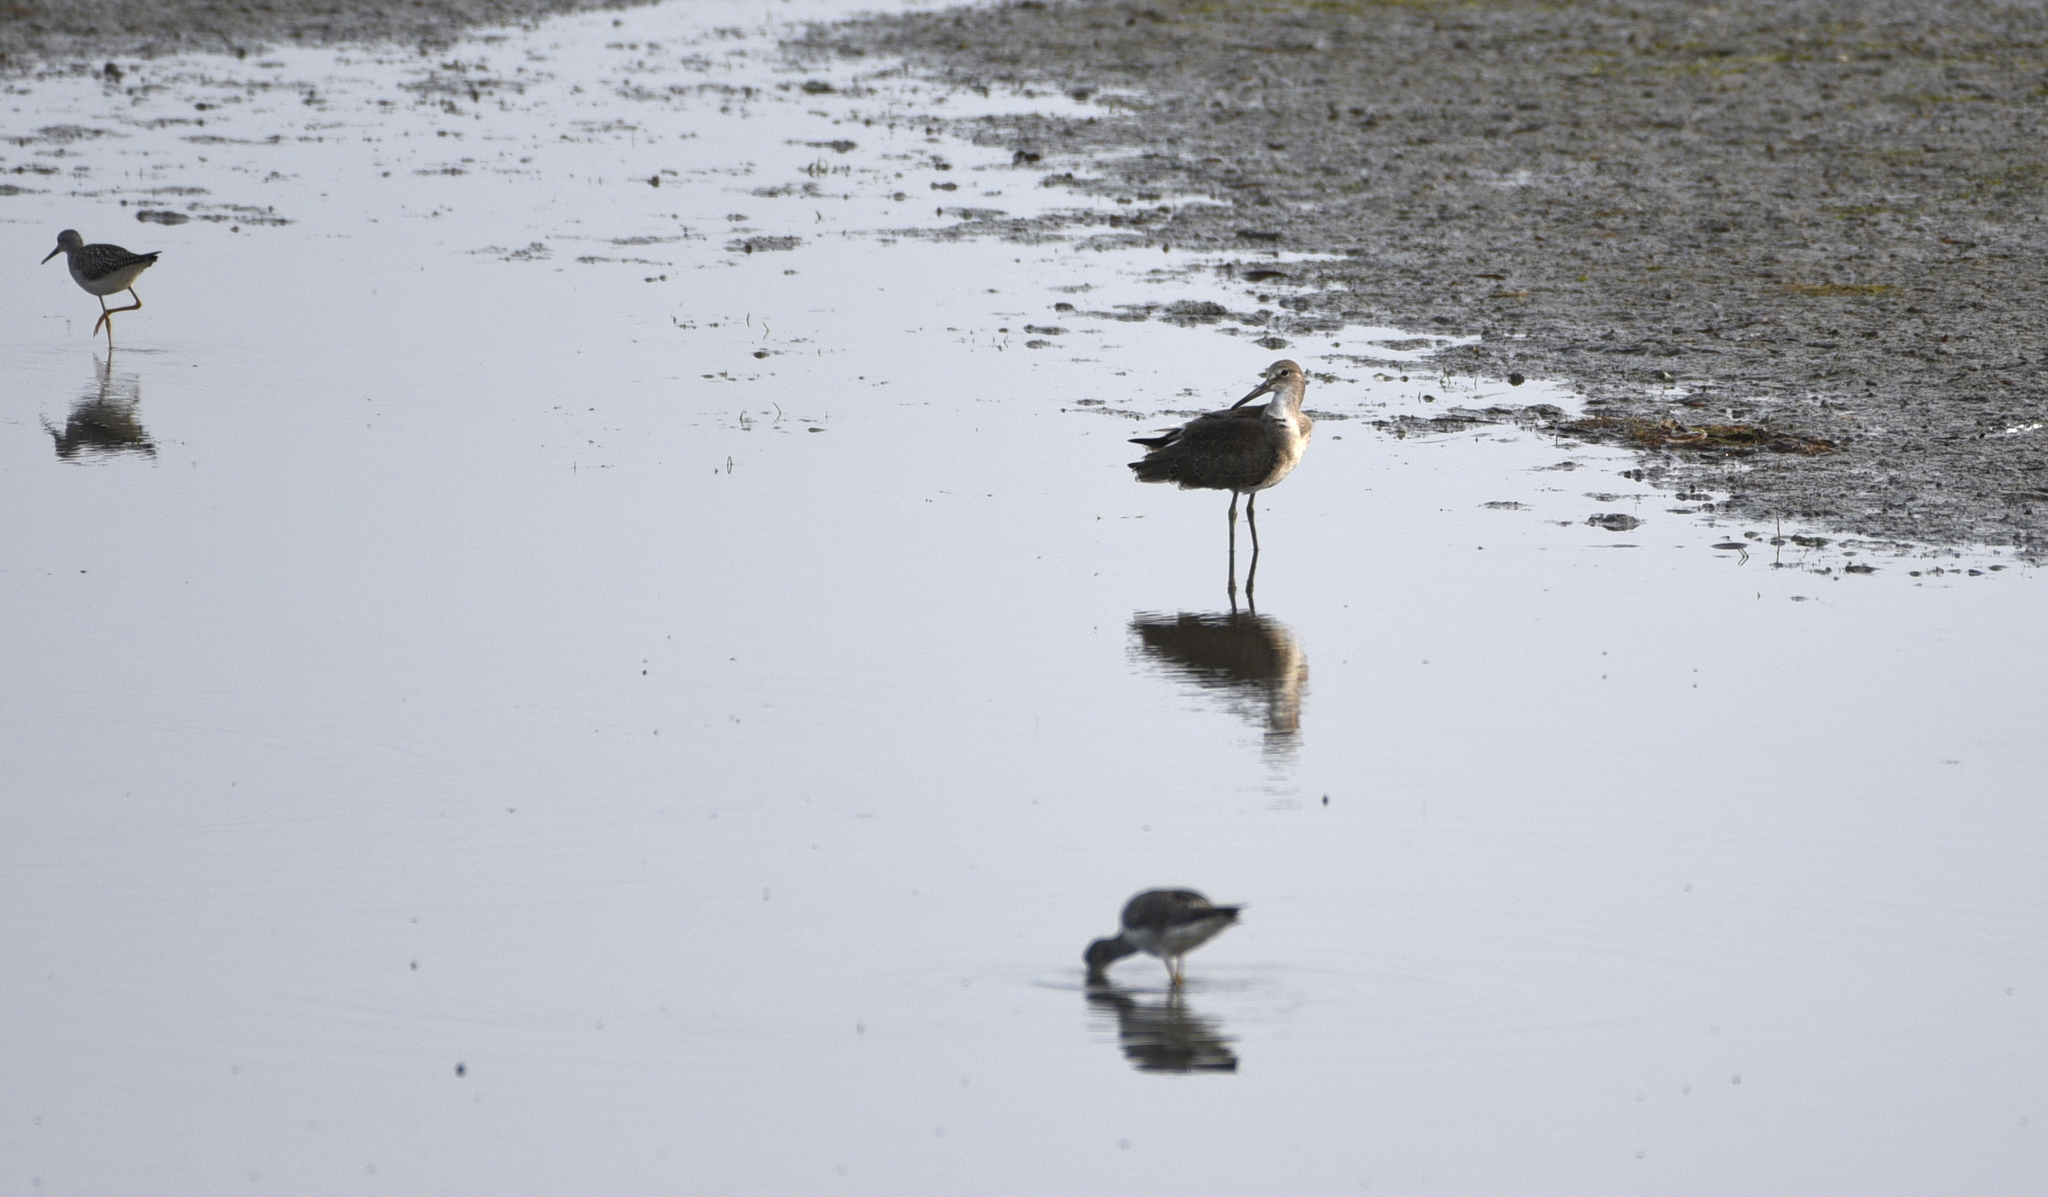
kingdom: Animalia
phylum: Chordata
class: Aves
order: Charadriiformes
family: Scolopacidae
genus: Tringa
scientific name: Tringa semipalmata
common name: Willet
